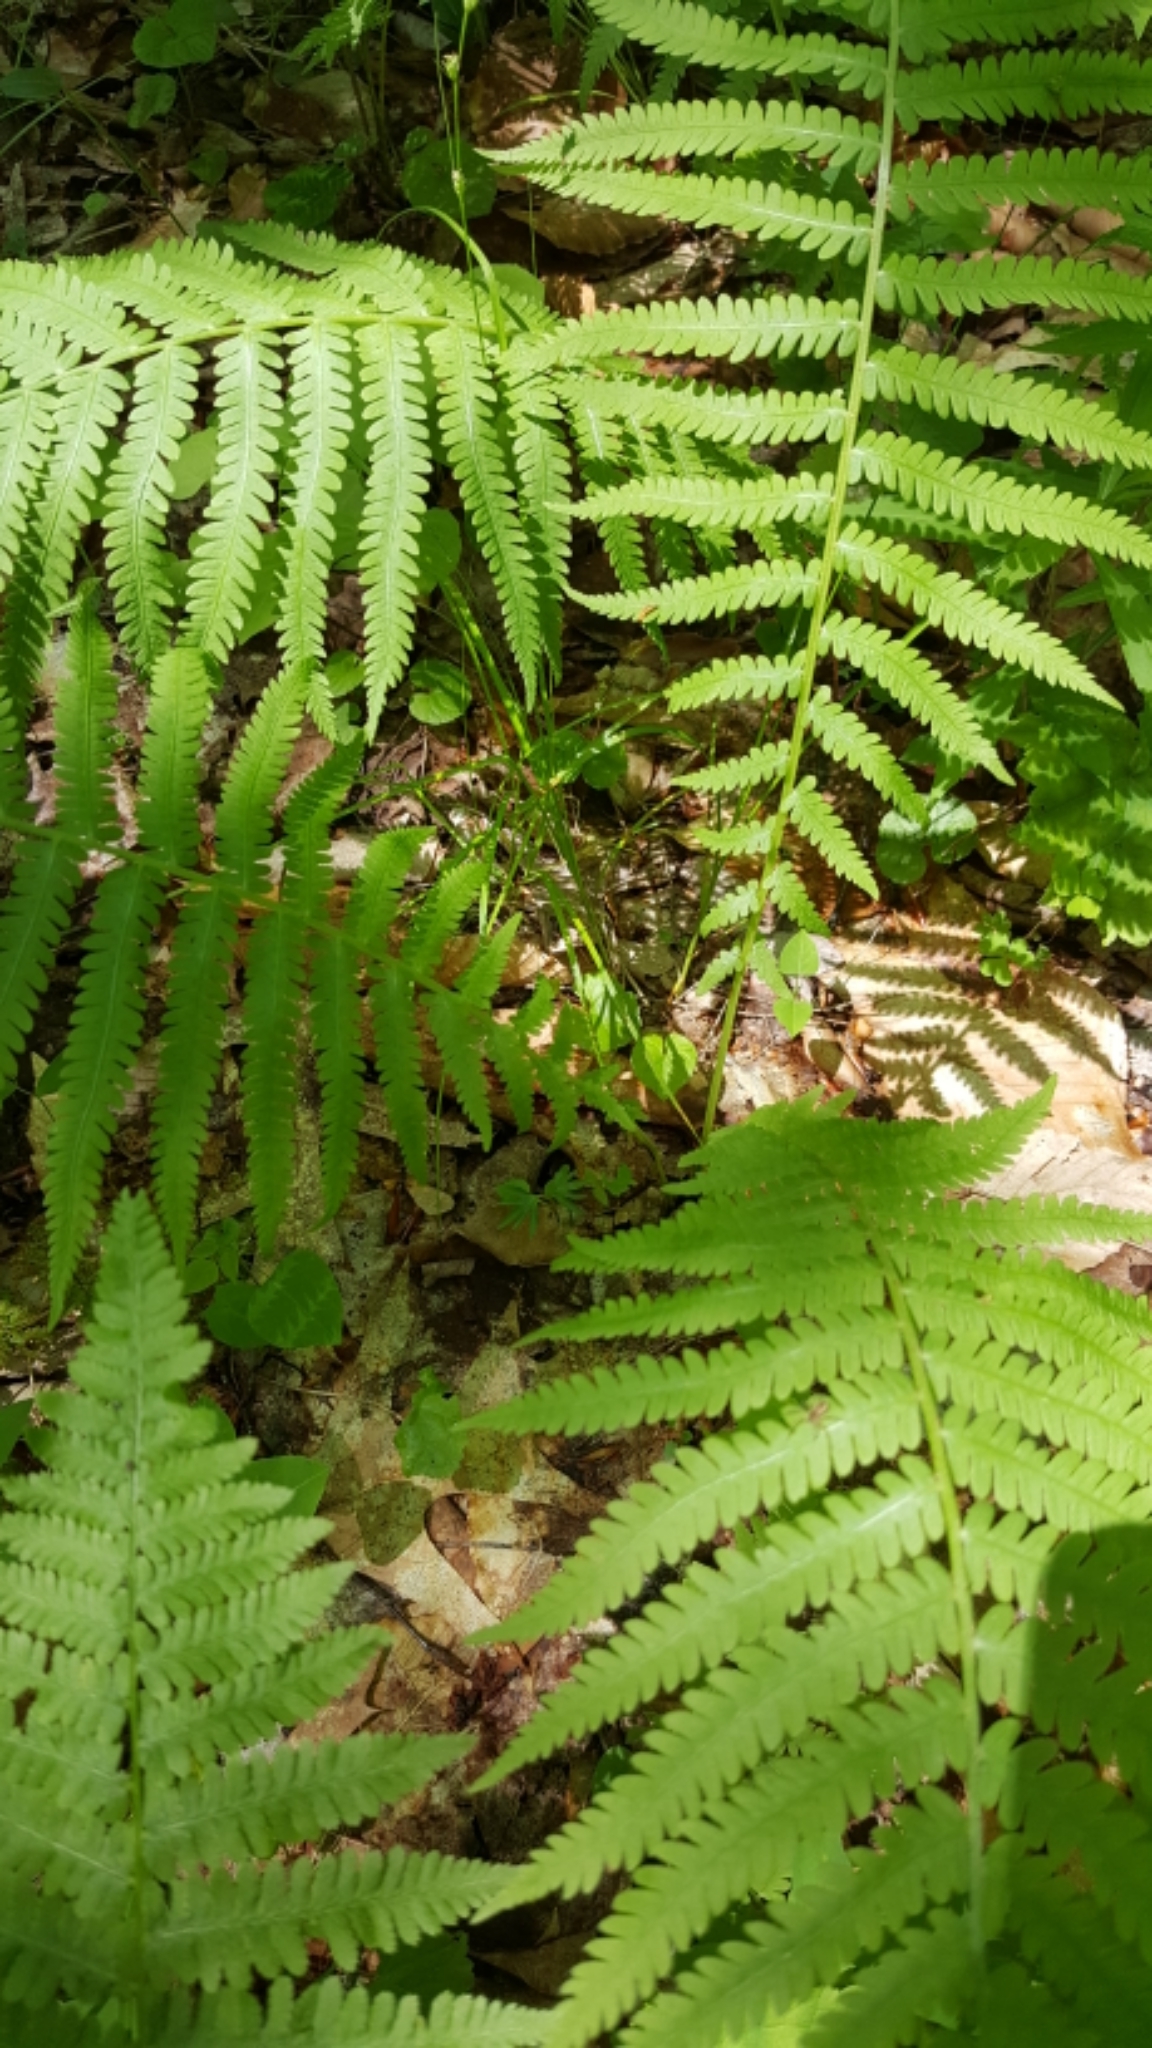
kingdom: Plantae
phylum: Tracheophyta
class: Polypodiopsida
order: Polypodiales
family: Onocleaceae
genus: Matteuccia
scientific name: Matteuccia struthiopteris
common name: Ostrich fern
